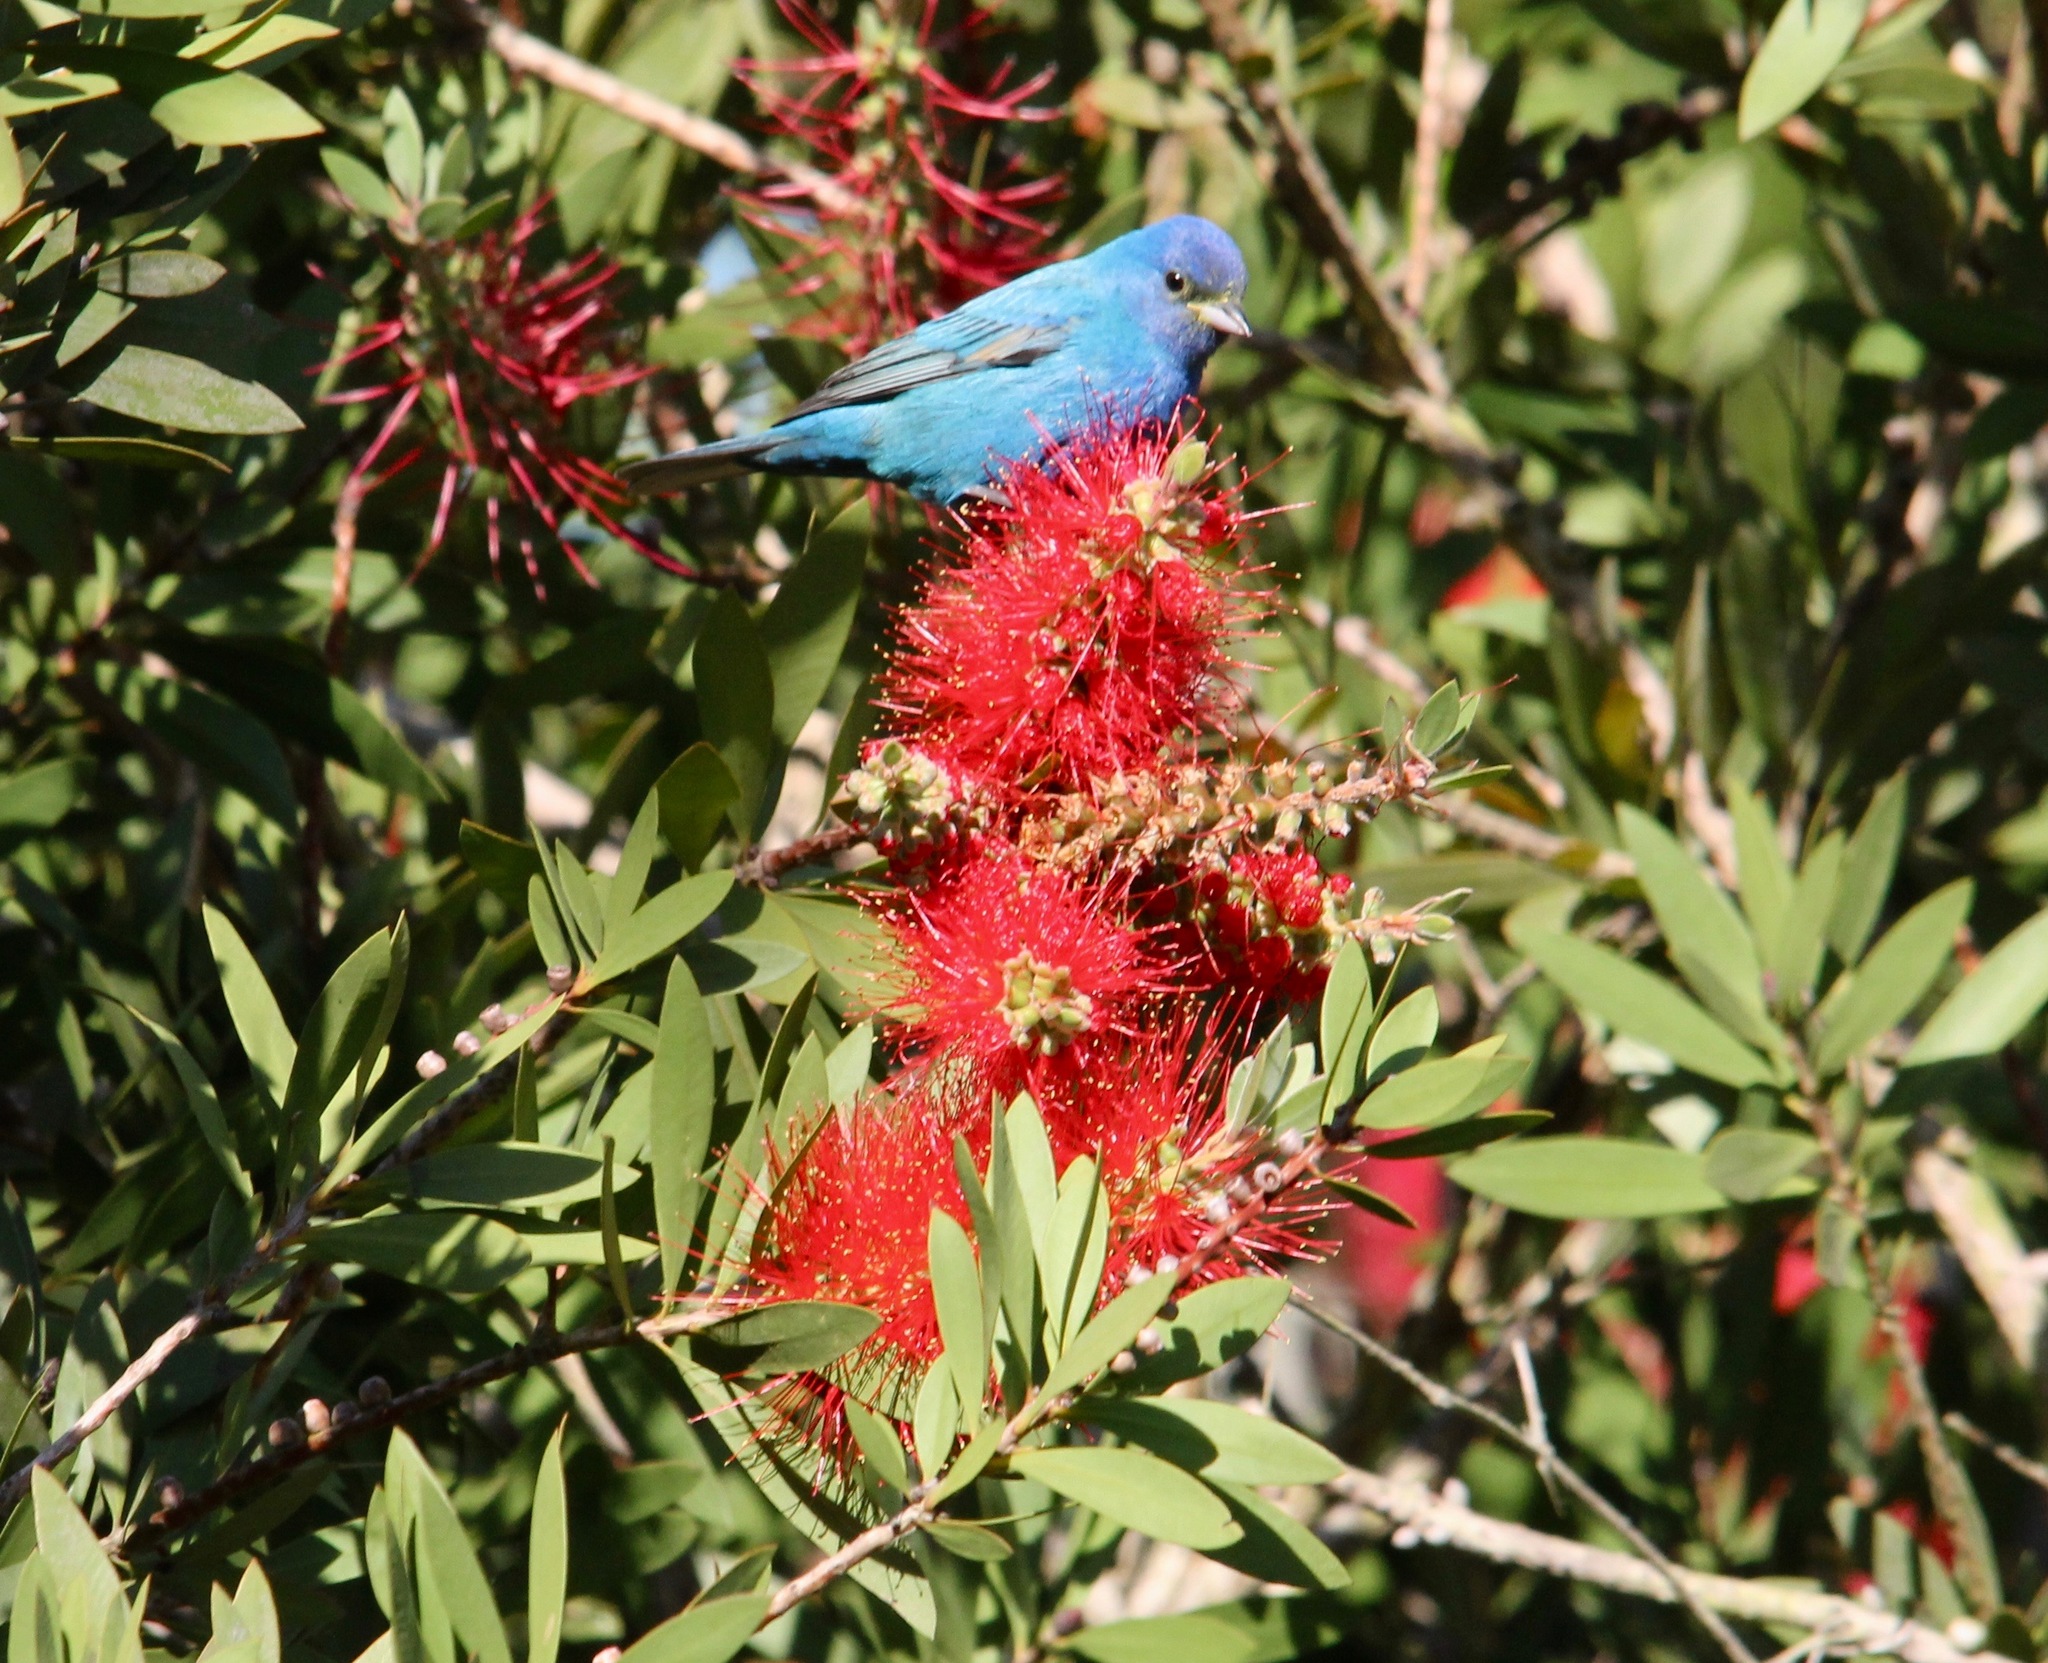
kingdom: Animalia
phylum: Chordata
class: Aves
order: Passeriformes
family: Cardinalidae
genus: Passerina
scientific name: Passerina cyanea
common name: Indigo bunting
